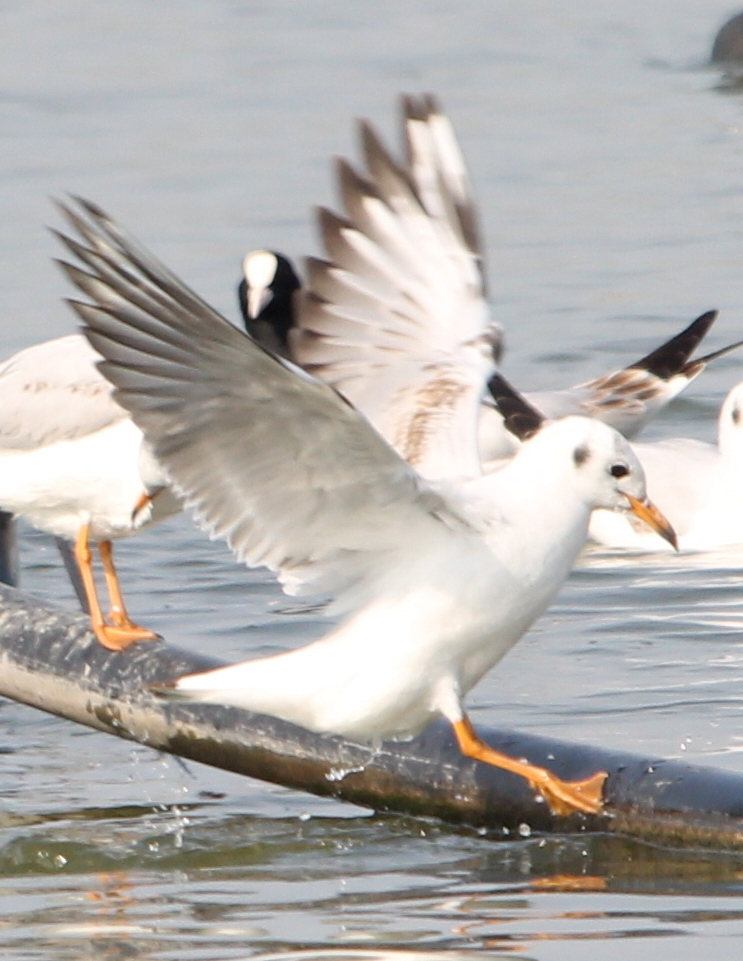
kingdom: Animalia
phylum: Chordata
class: Aves
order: Charadriiformes
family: Laridae
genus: Chroicocephalus
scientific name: Chroicocephalus ridibundus
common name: Black-headed gull
